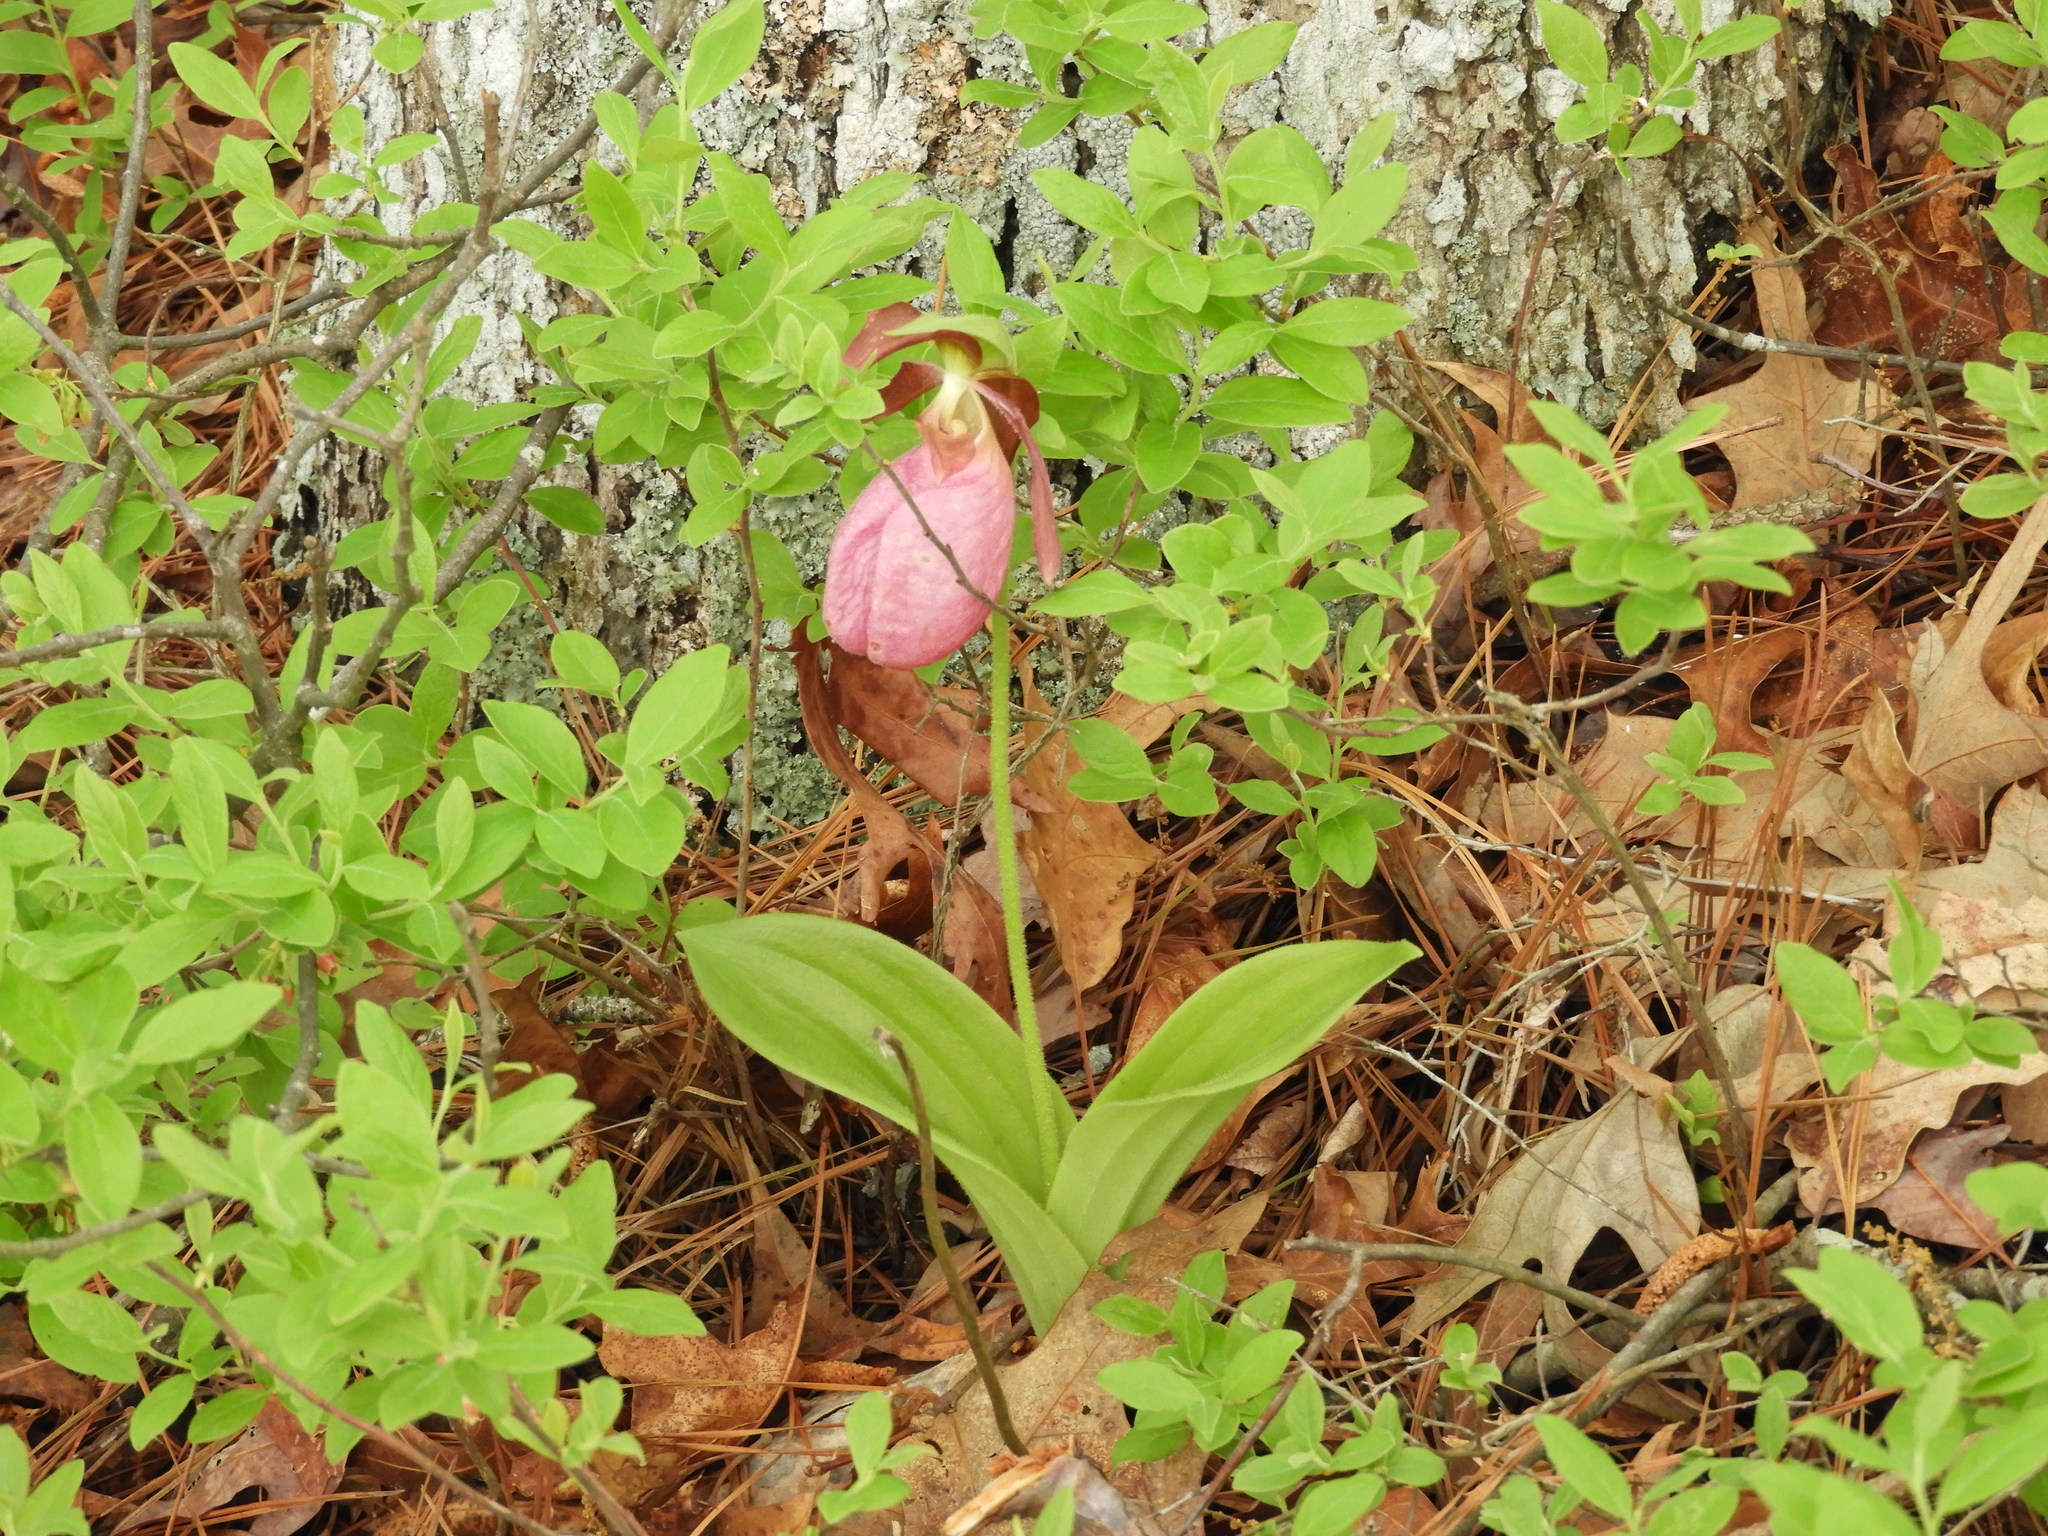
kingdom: Plantae
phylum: Tracheophyta
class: Liliopsida
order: Asparagales
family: Orchidaceae
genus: Cypripedium
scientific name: Cypripedium acaule
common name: Pink lady's-slipper
